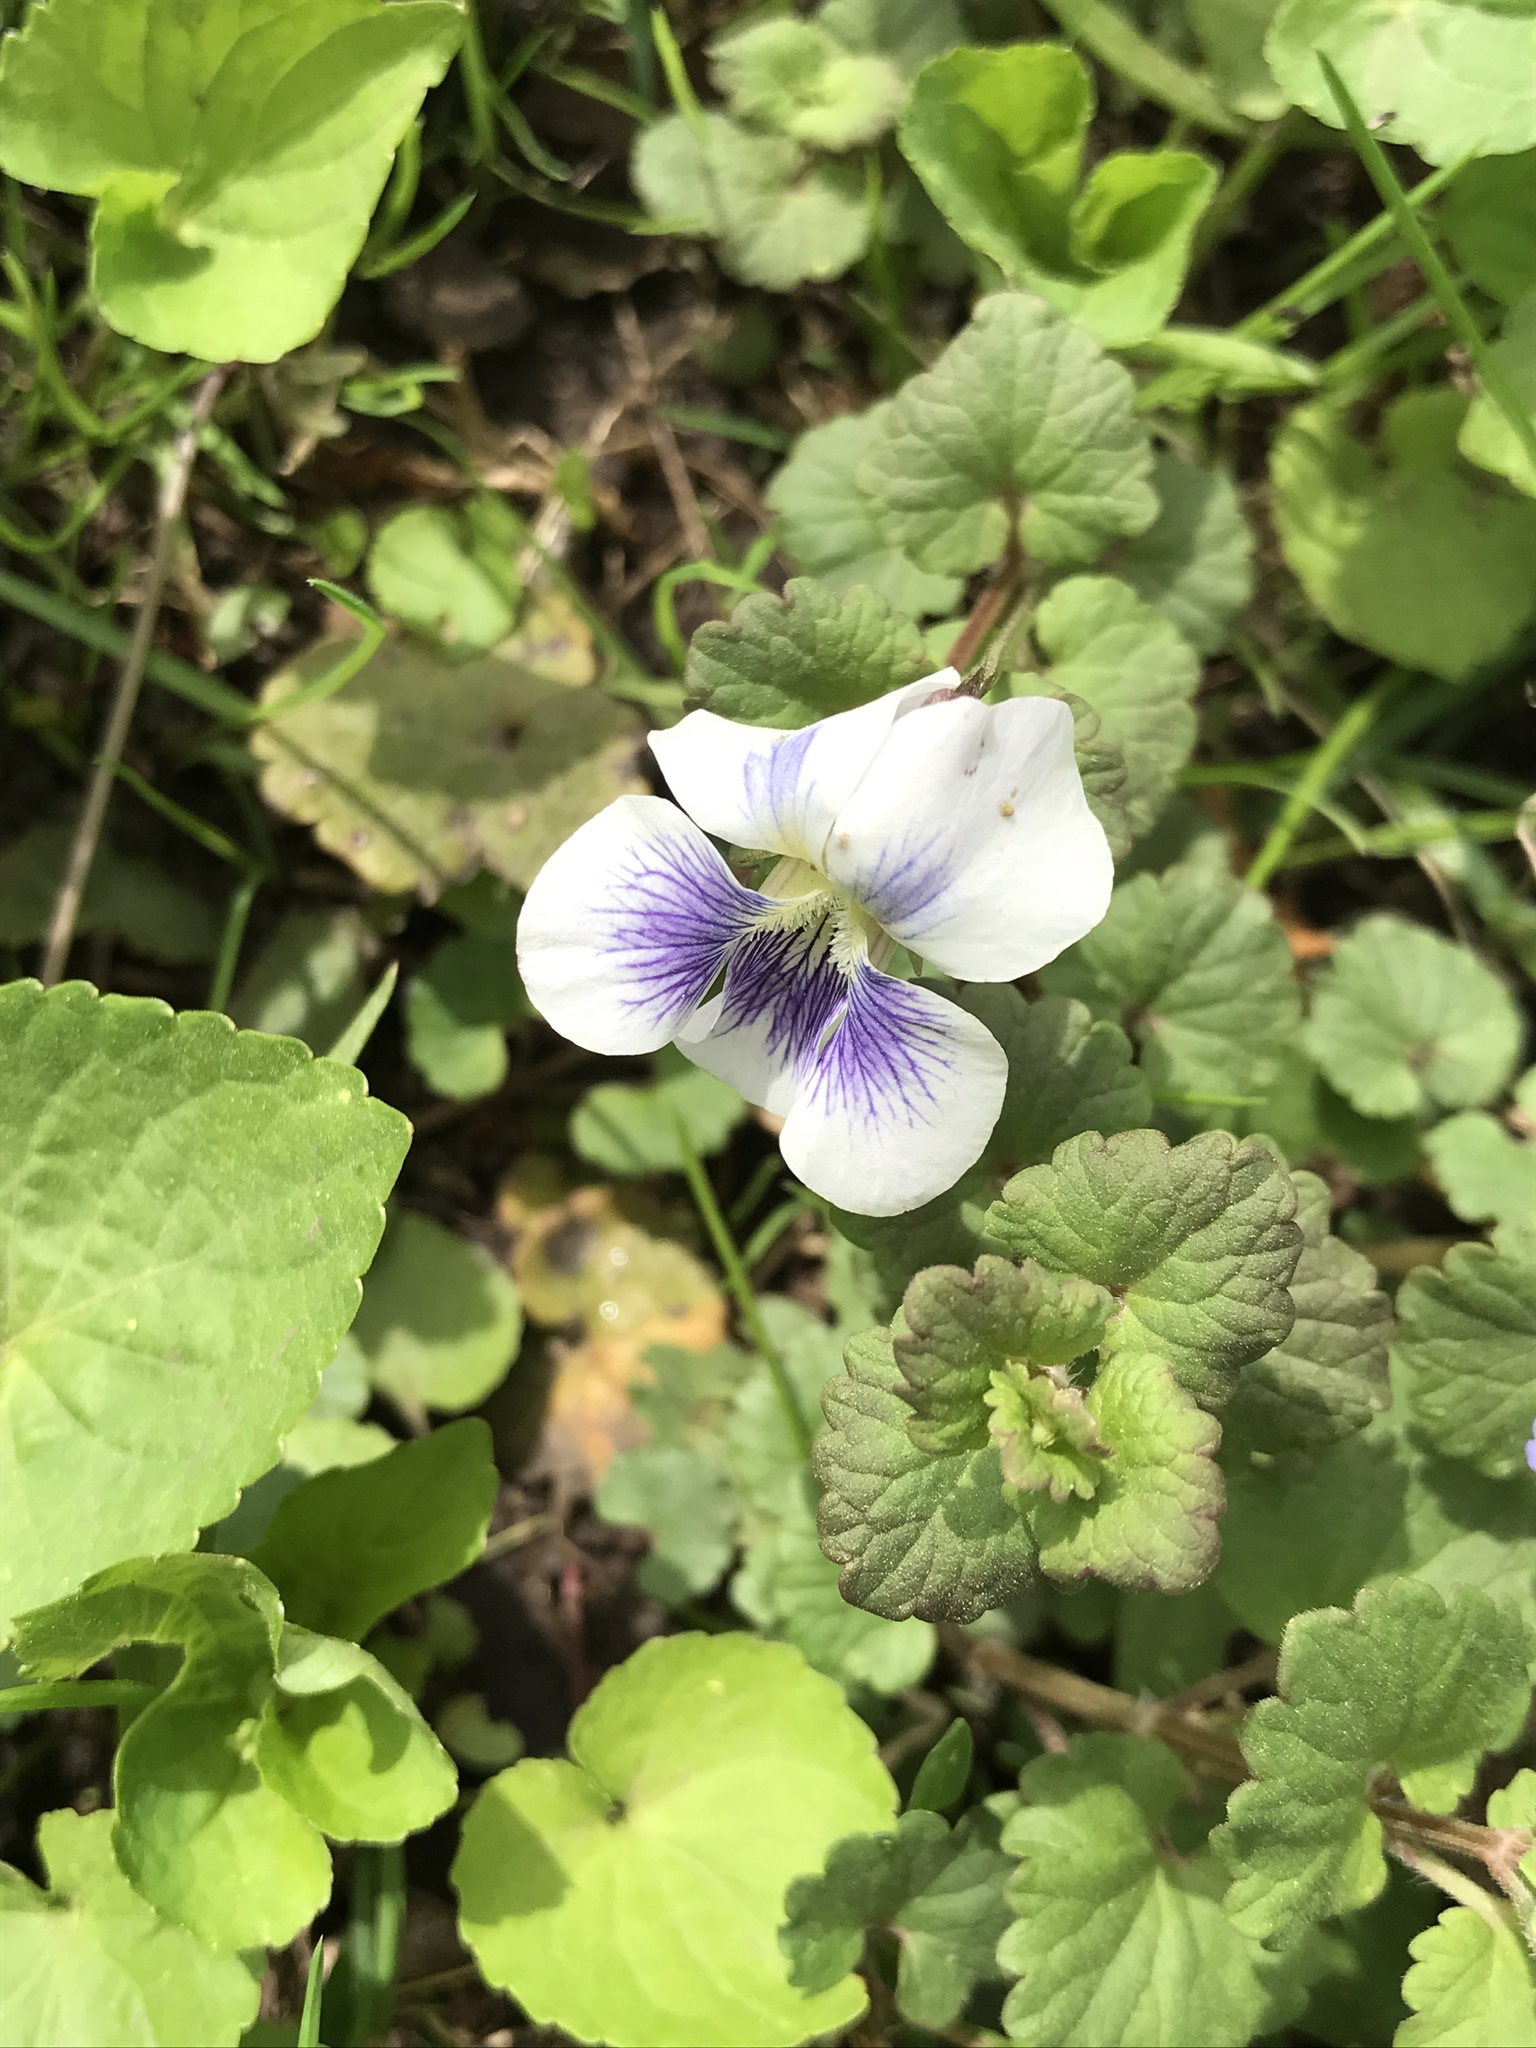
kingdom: Plantae
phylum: Tracheophyta
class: Magnoliopsida
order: Malpighiales
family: Violaceae
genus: Viola
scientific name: Viola sororia
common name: Dooryard violet
